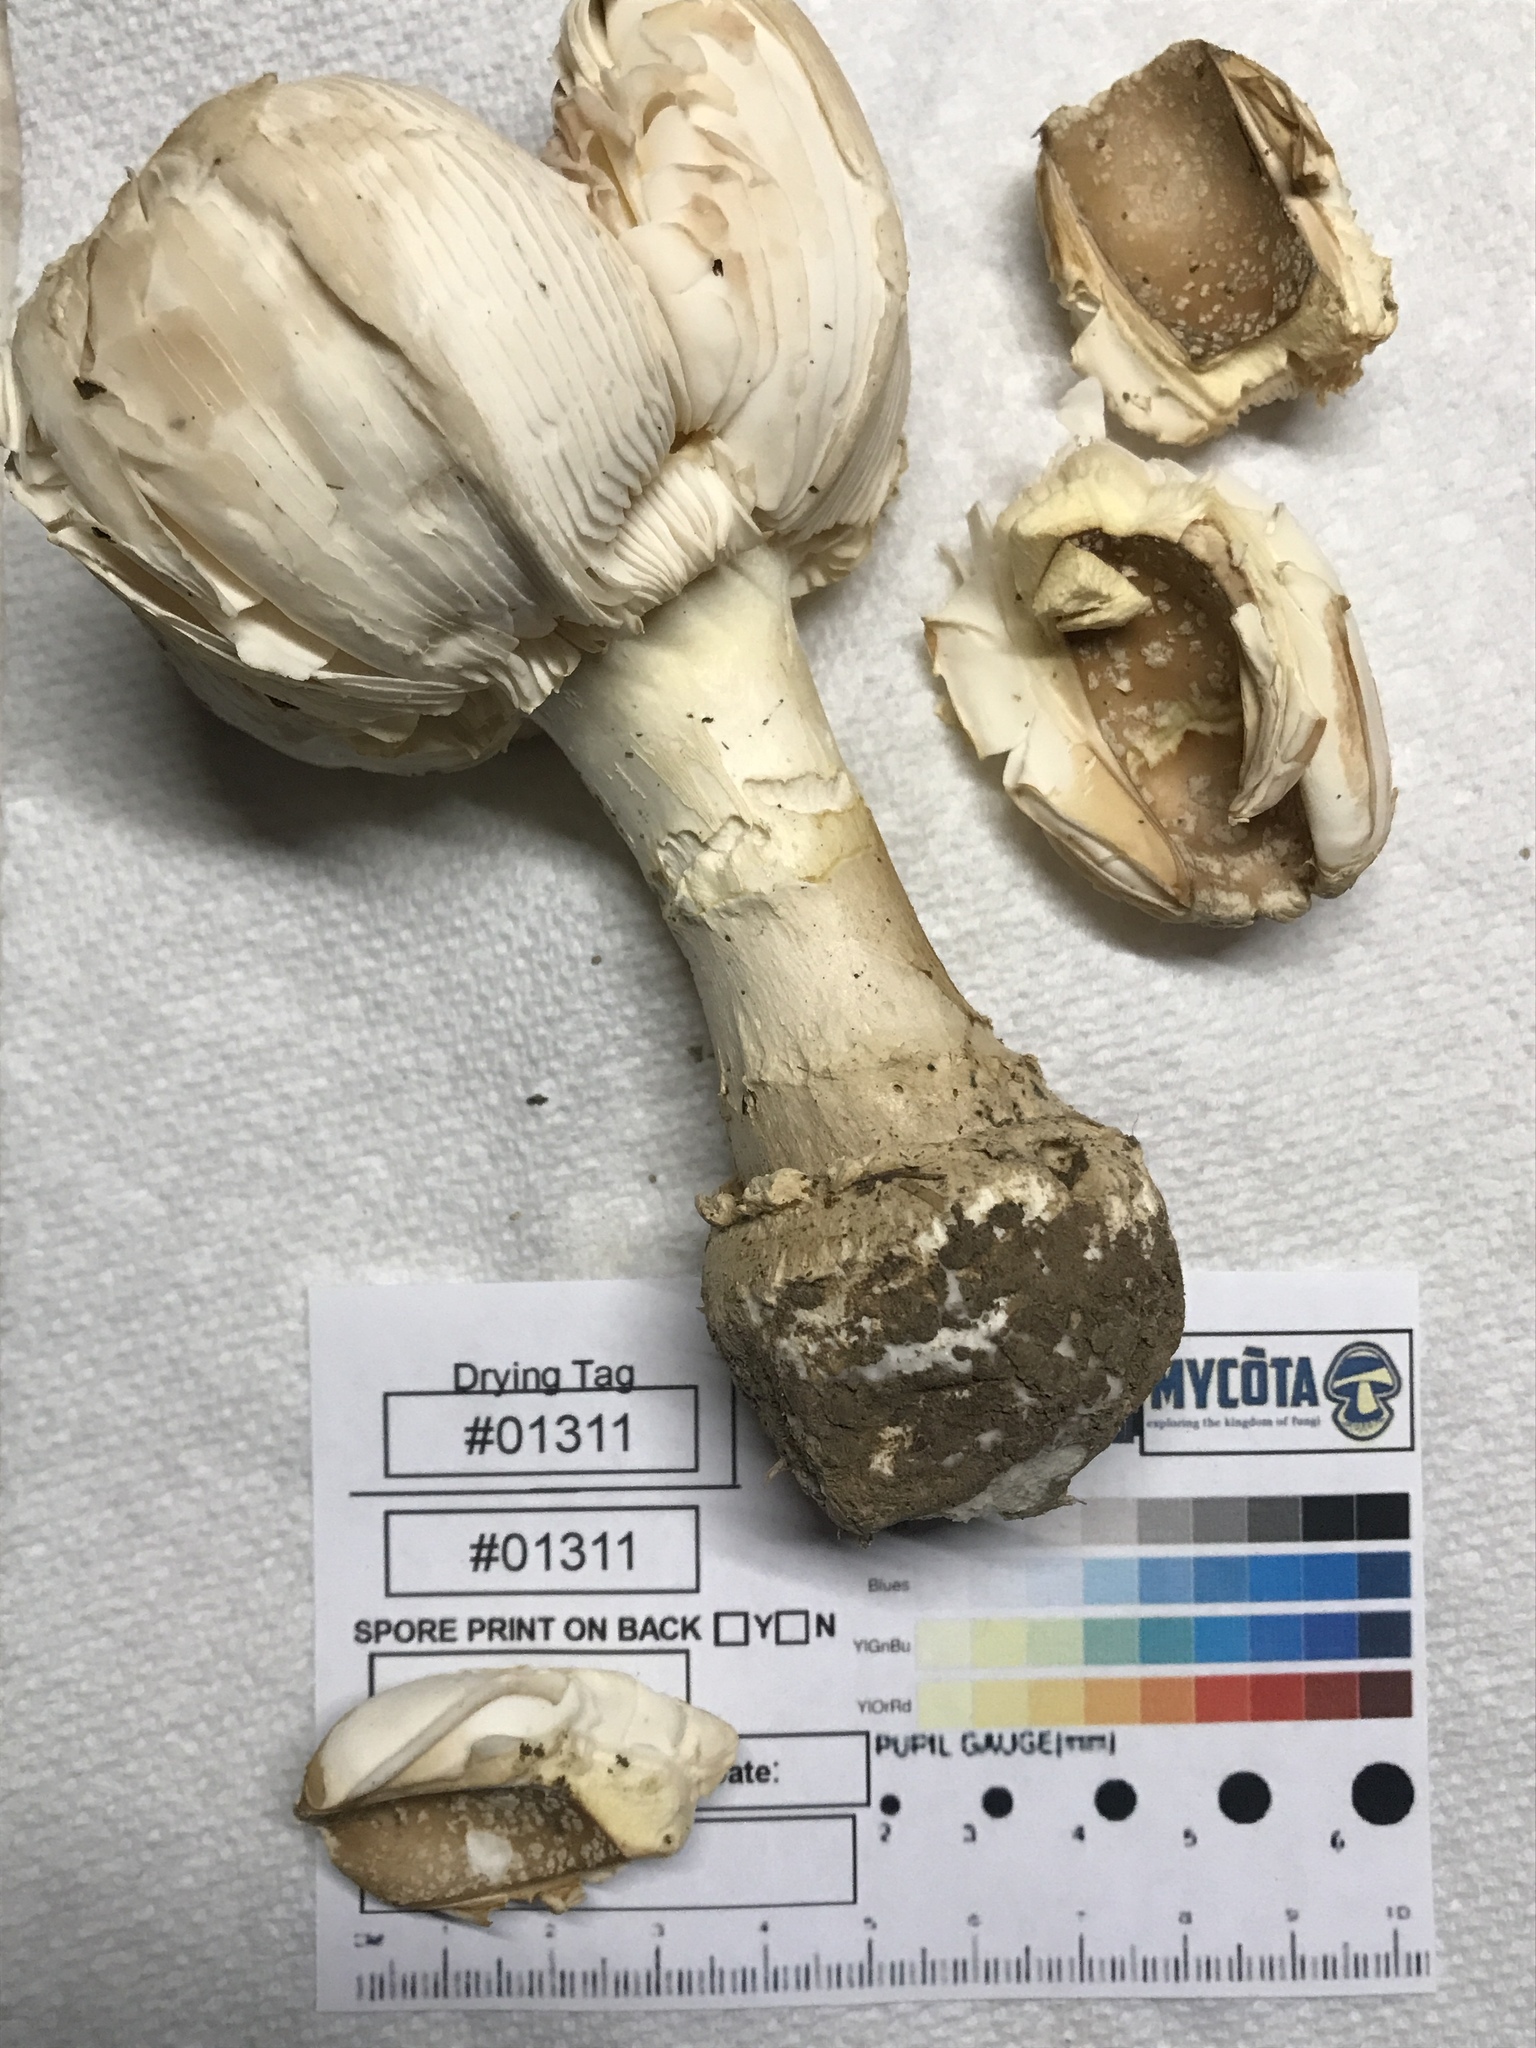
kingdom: Fungi
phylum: Basidiomycota
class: Agaricomycetes
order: Agaricales
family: Amanitaceae
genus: Amanita
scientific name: Amanita muscaria
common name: Fly agaric
